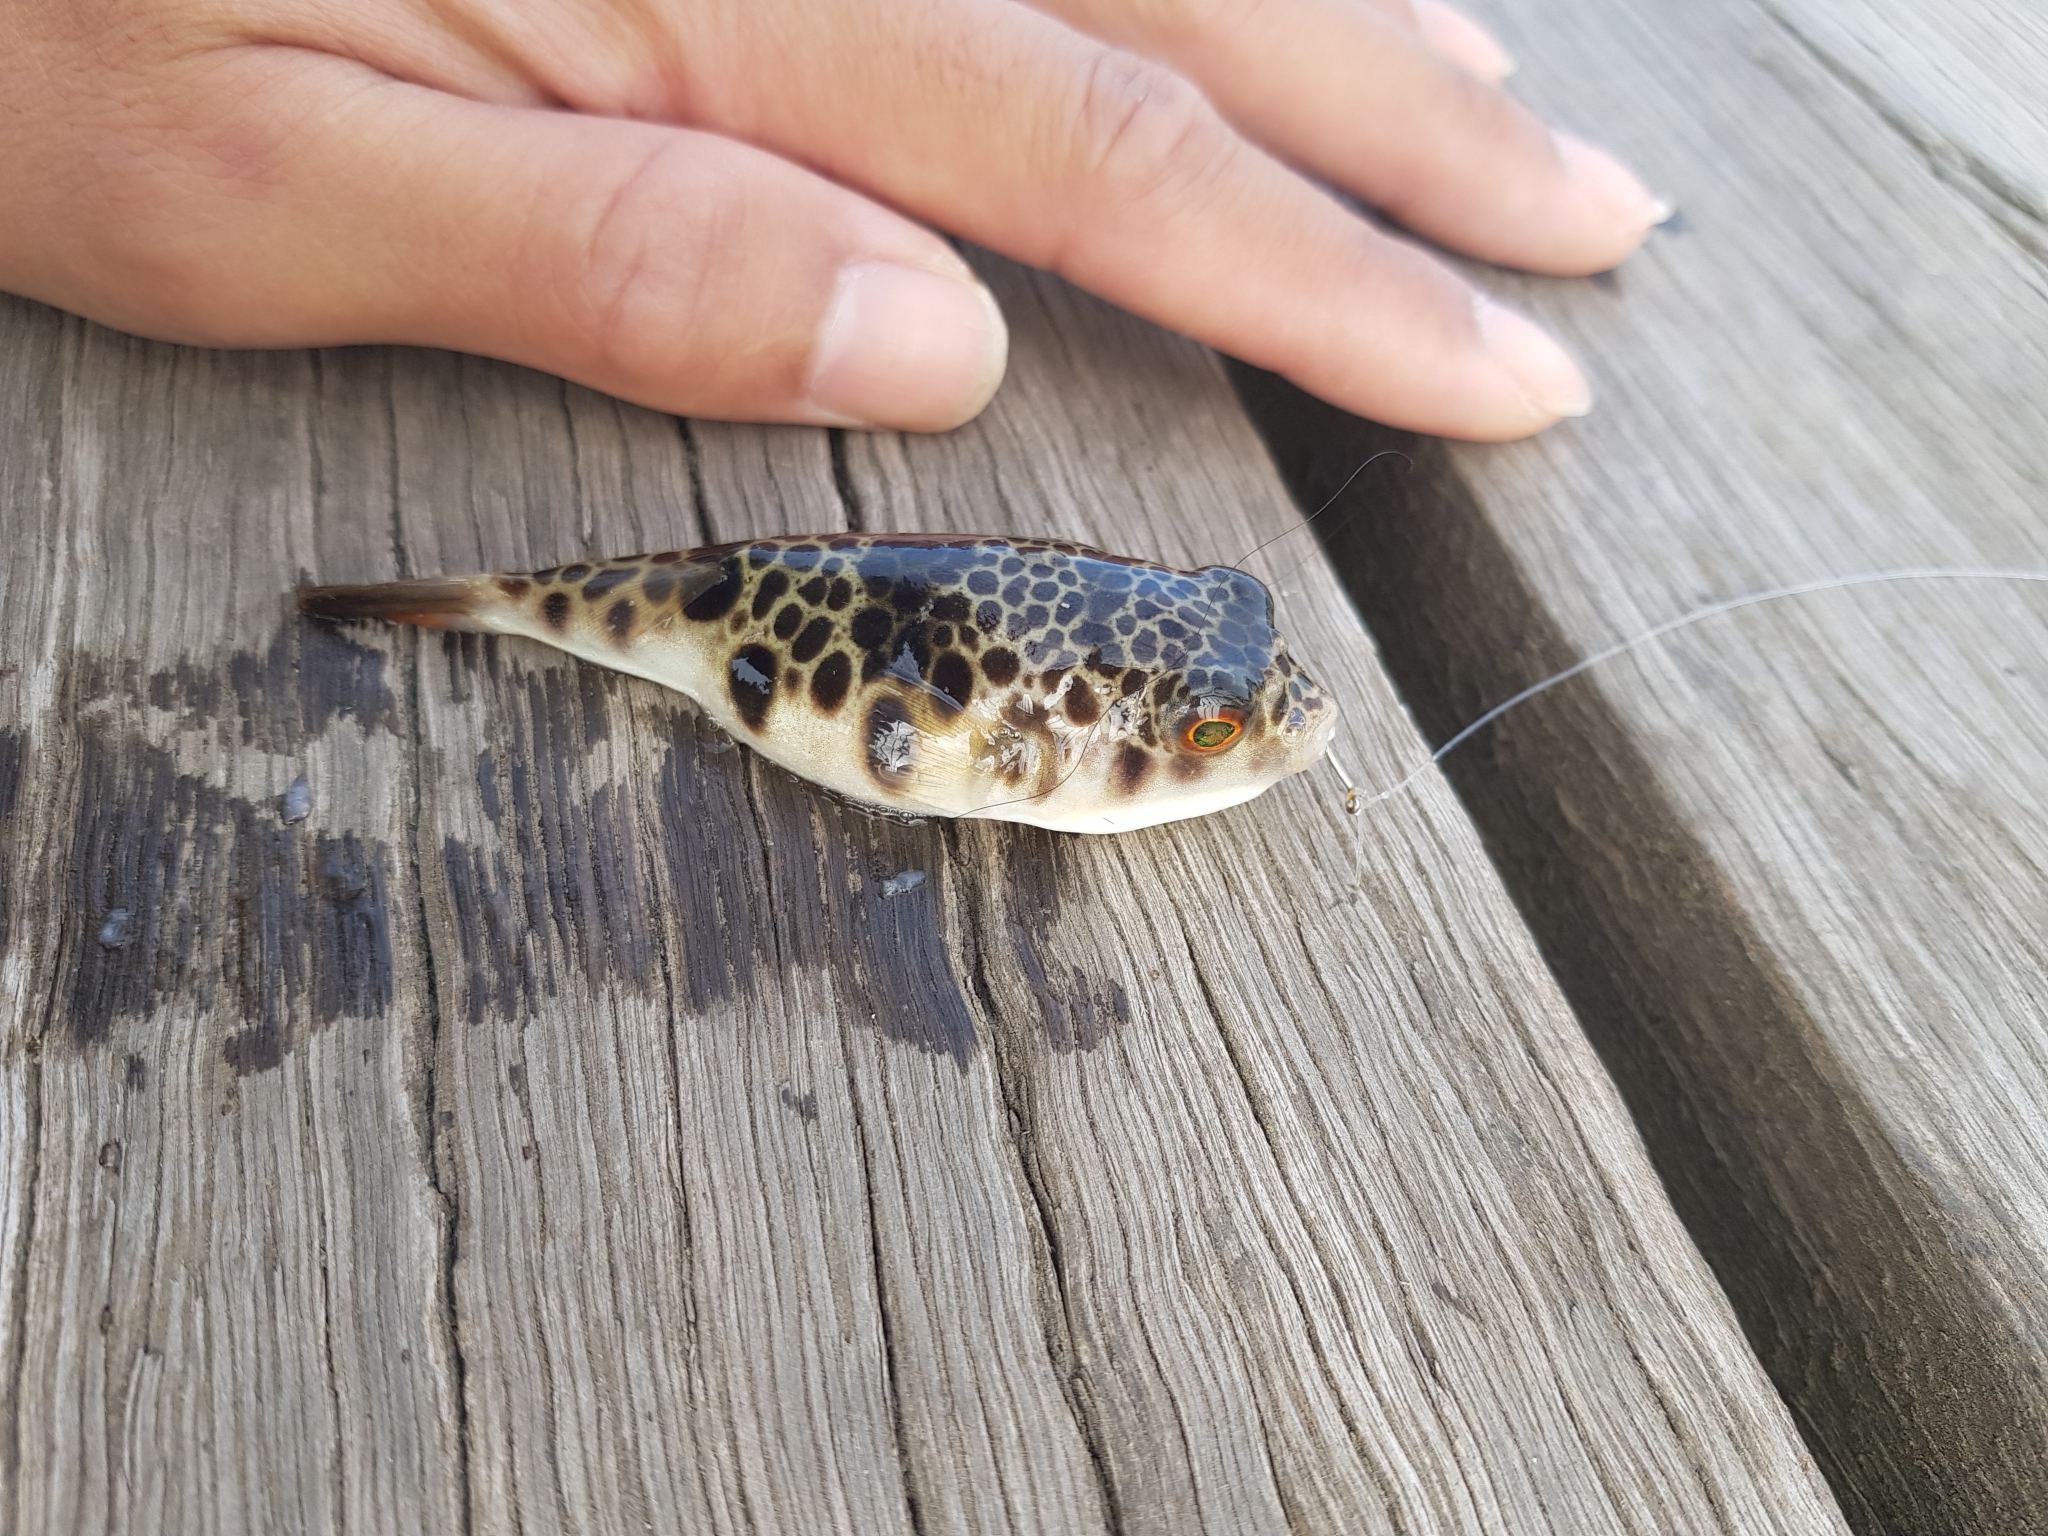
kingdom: Animalia
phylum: Chordata
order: Tetraodontiformes
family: Tetraodontidae
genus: Tetractenos
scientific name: Tetractenos glaber
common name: Smooth toadfish
